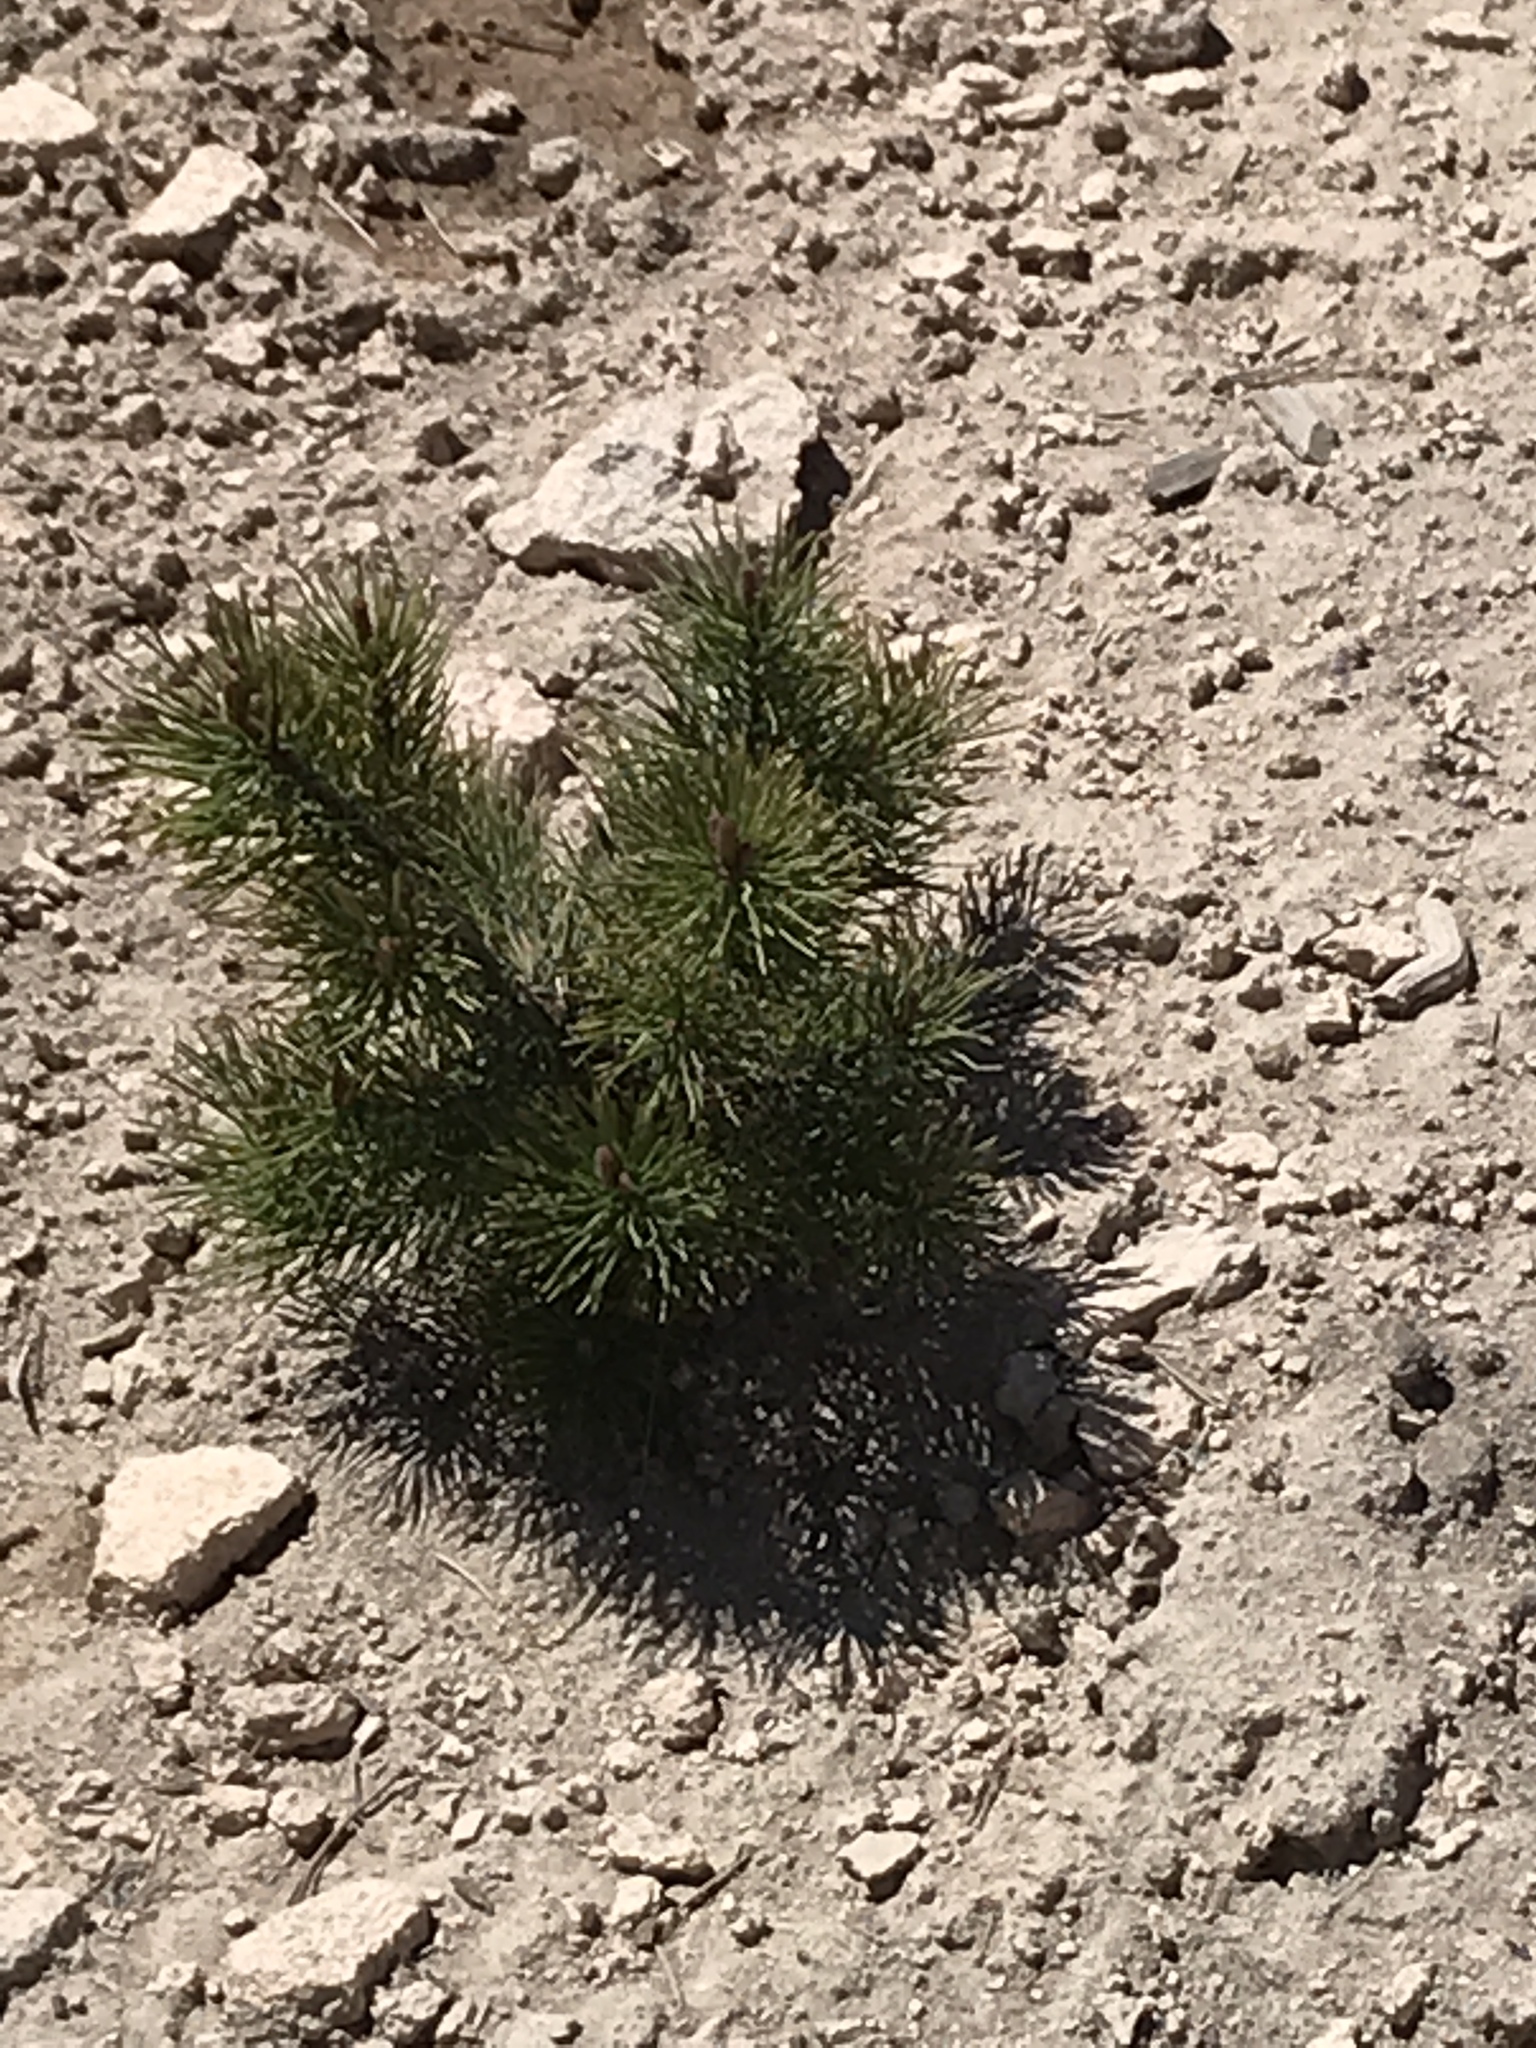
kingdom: Plantae
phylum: Tracheophyta
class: Pinopsida
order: Pinales
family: Pinaceae
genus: Pinus
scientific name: Pinus contorta
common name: Lodgepole pine
